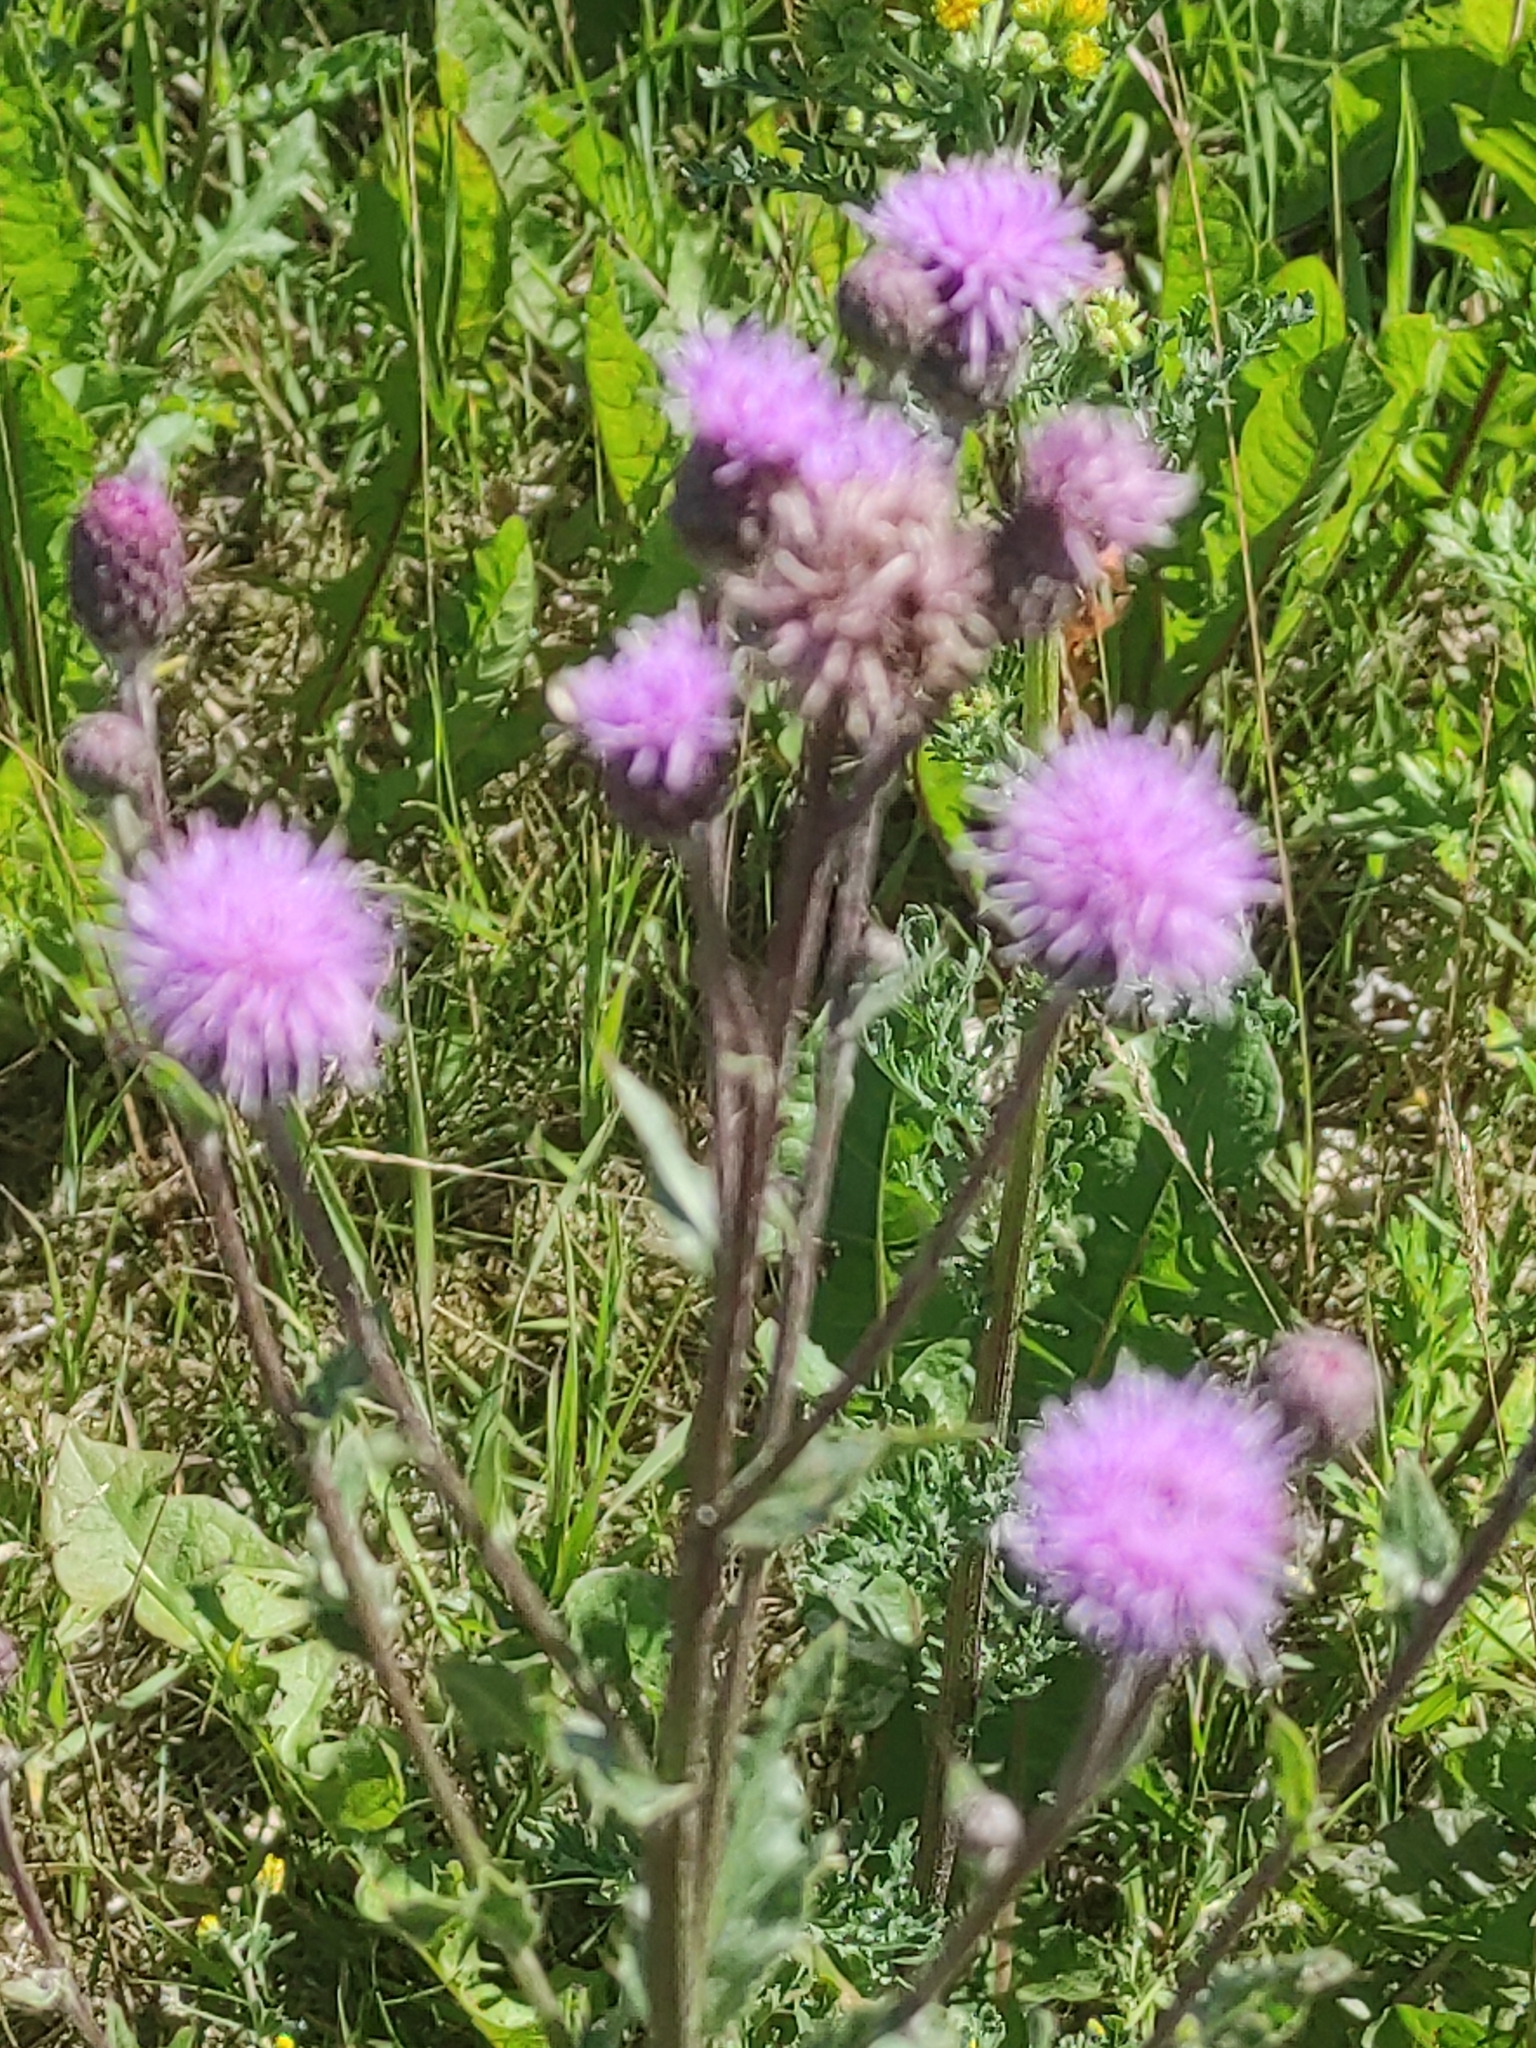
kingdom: Plantae
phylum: Tracheophyta
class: Magnoliopsida
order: Asterales
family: Asteraceae
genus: Cirsium
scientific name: Cirsium arvense
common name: Creeping thistle
